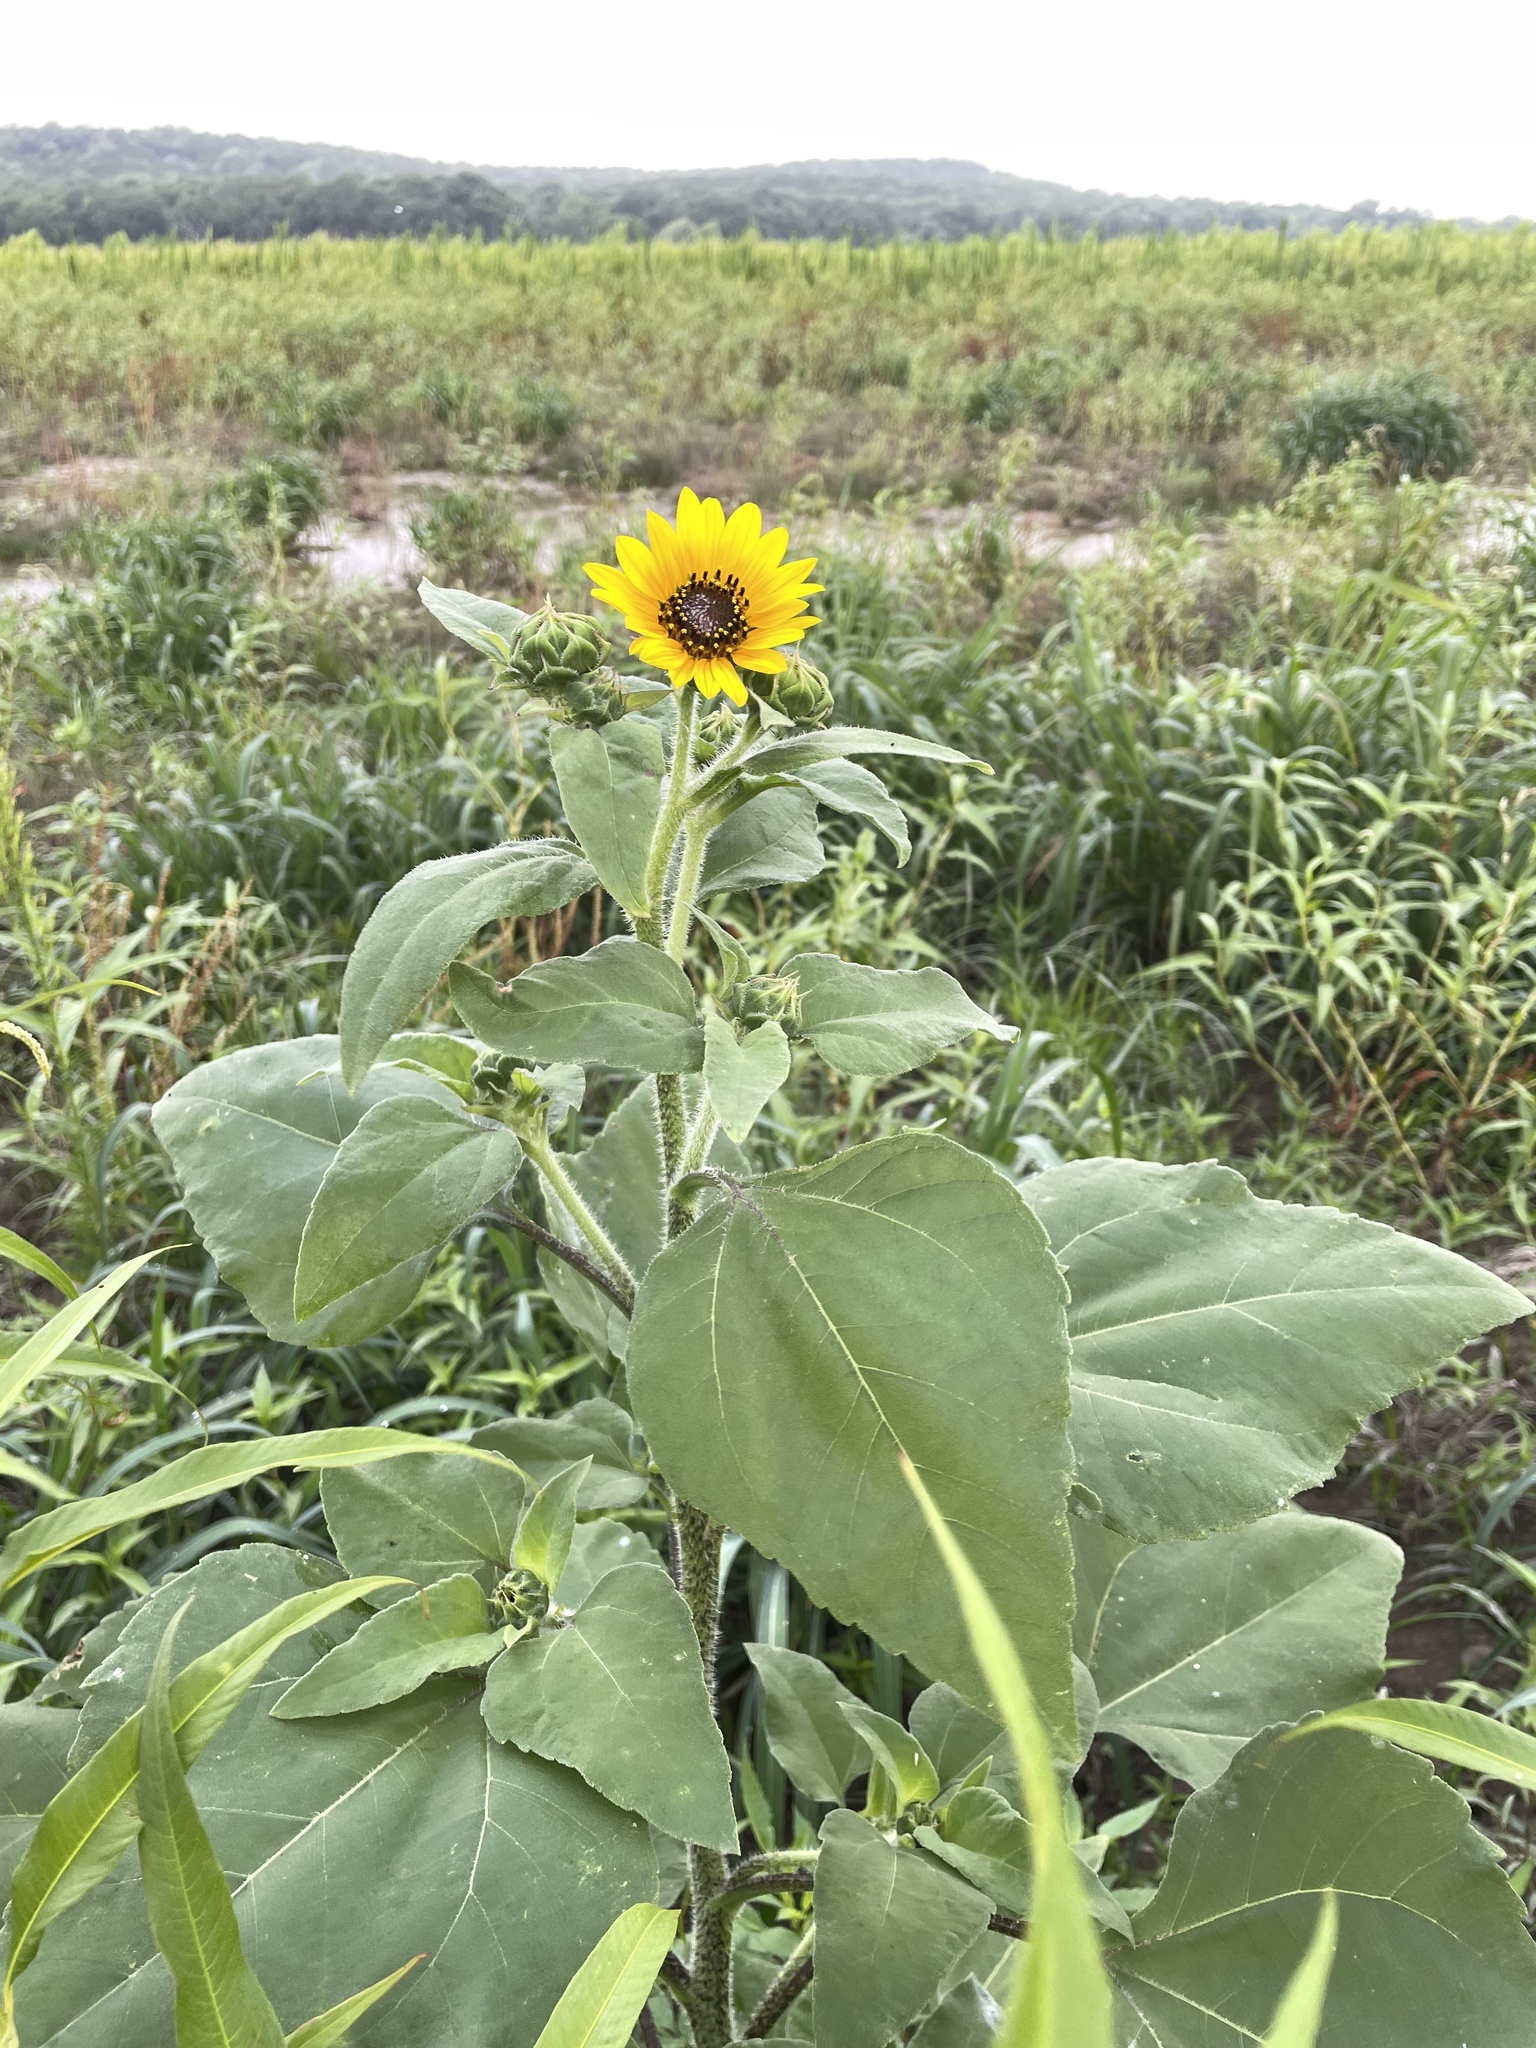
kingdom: Plantae
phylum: Tracheophyta
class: Magnoliopsida
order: Asterales
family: Asteraceae
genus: Helianthus
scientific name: Helianthus annuus
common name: Sunflower
